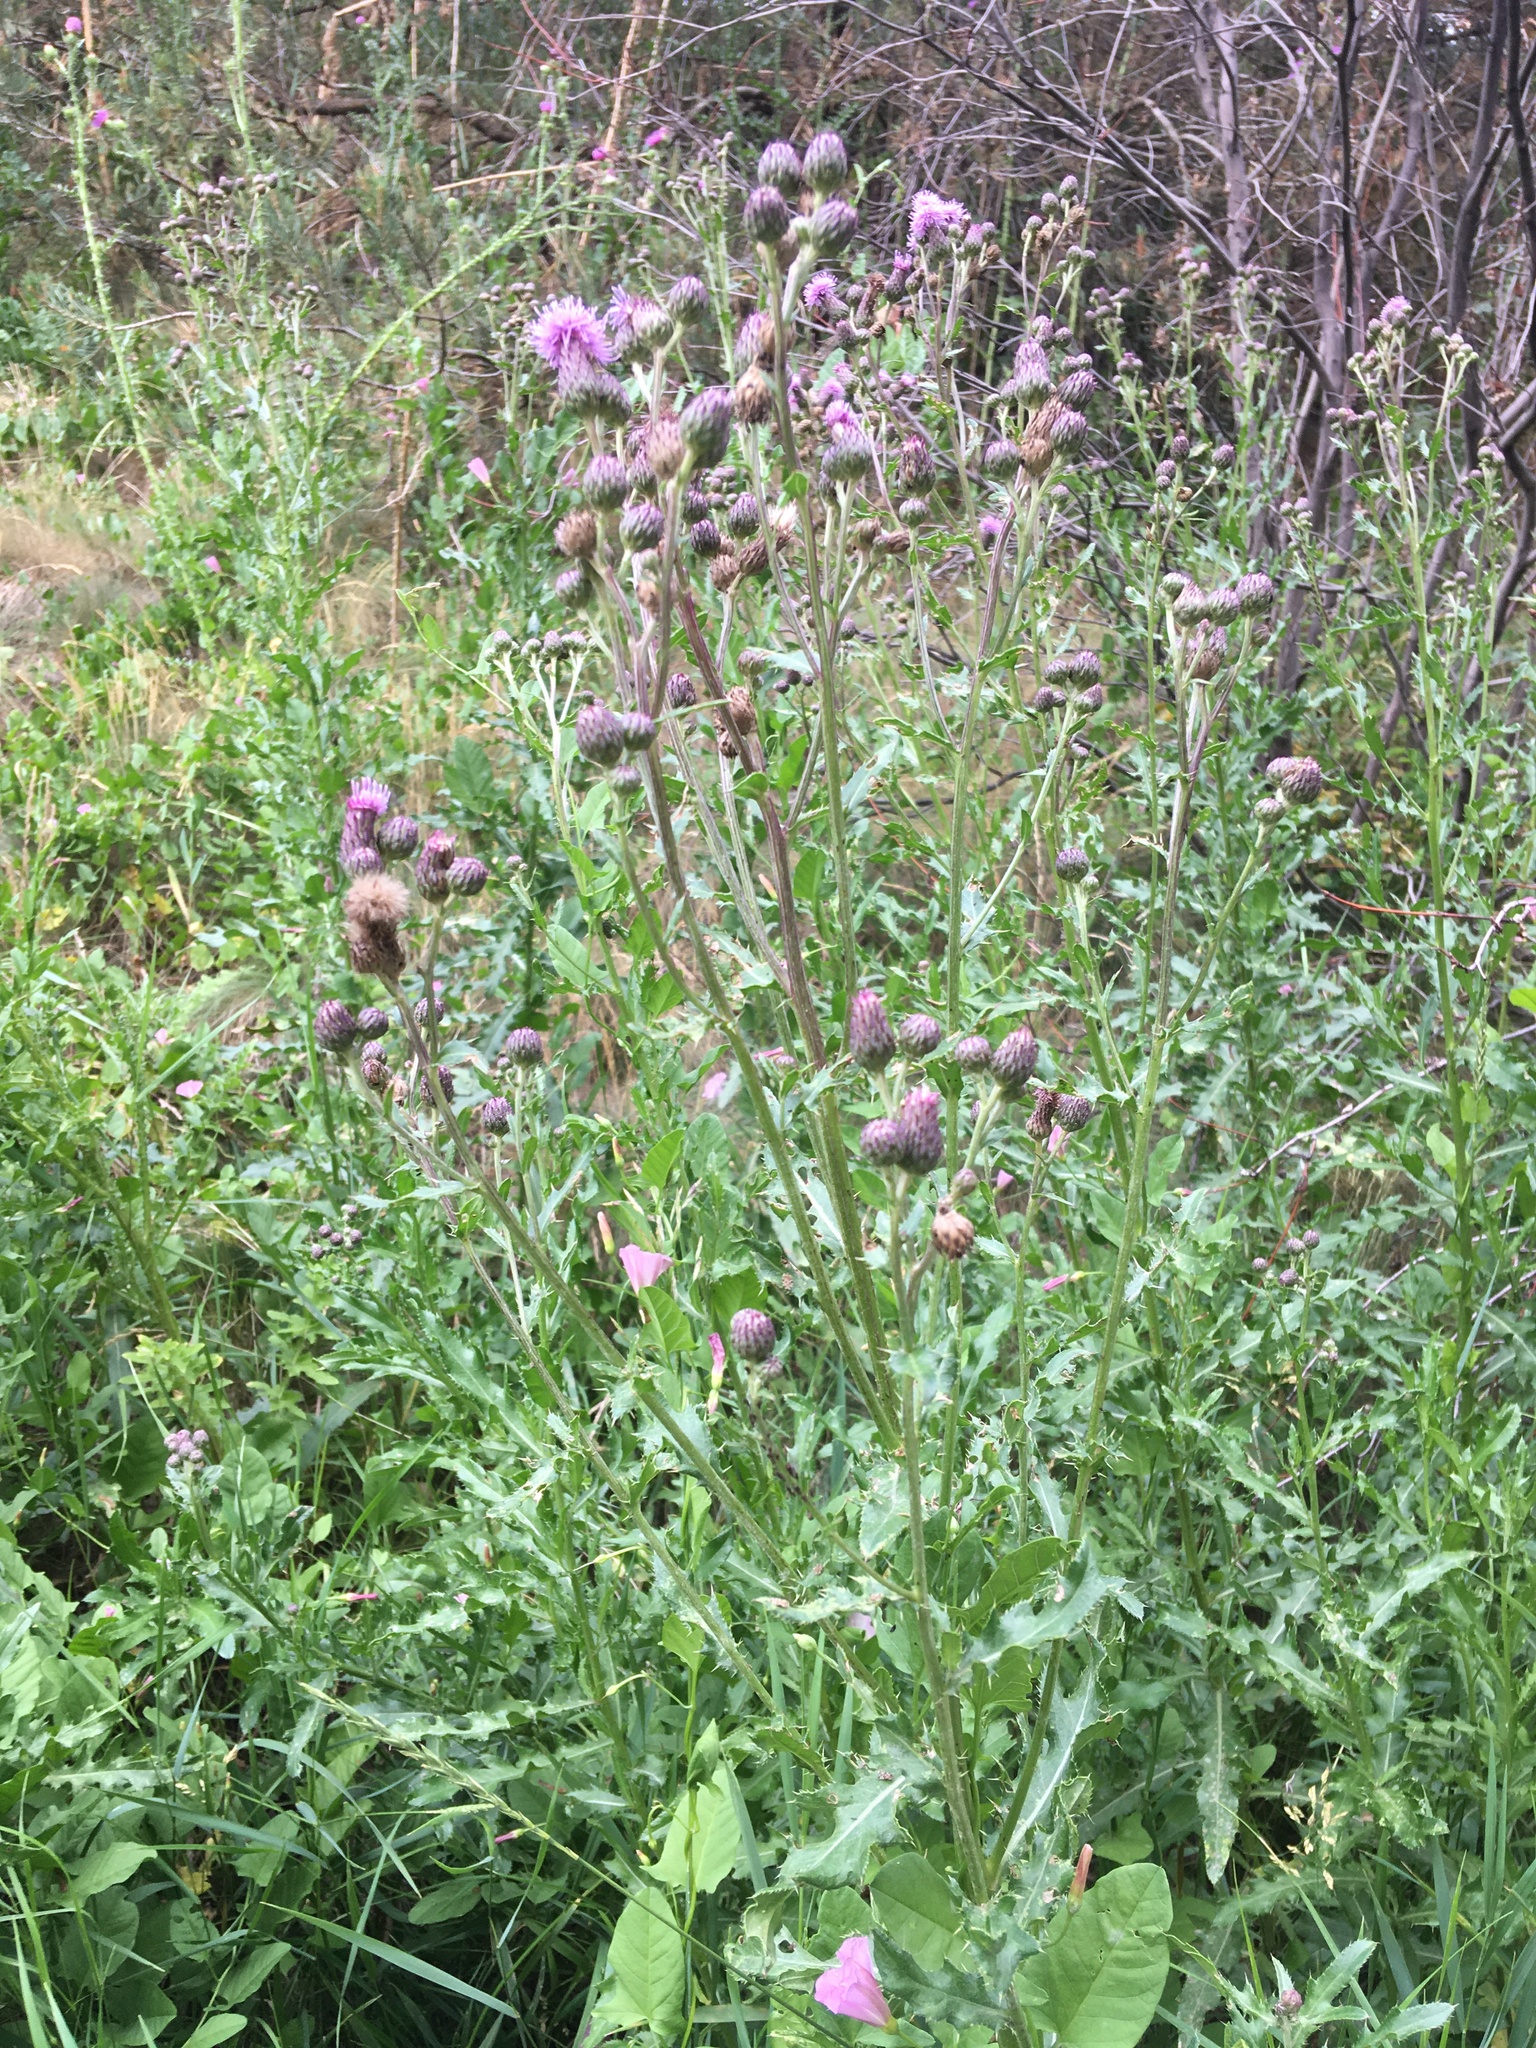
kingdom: Plantae
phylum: Tracheophyta
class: Magnoliopsida
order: Asterales
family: Asteraceae
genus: Cirsium
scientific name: Cirsium arvense
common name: Creeping thistle
